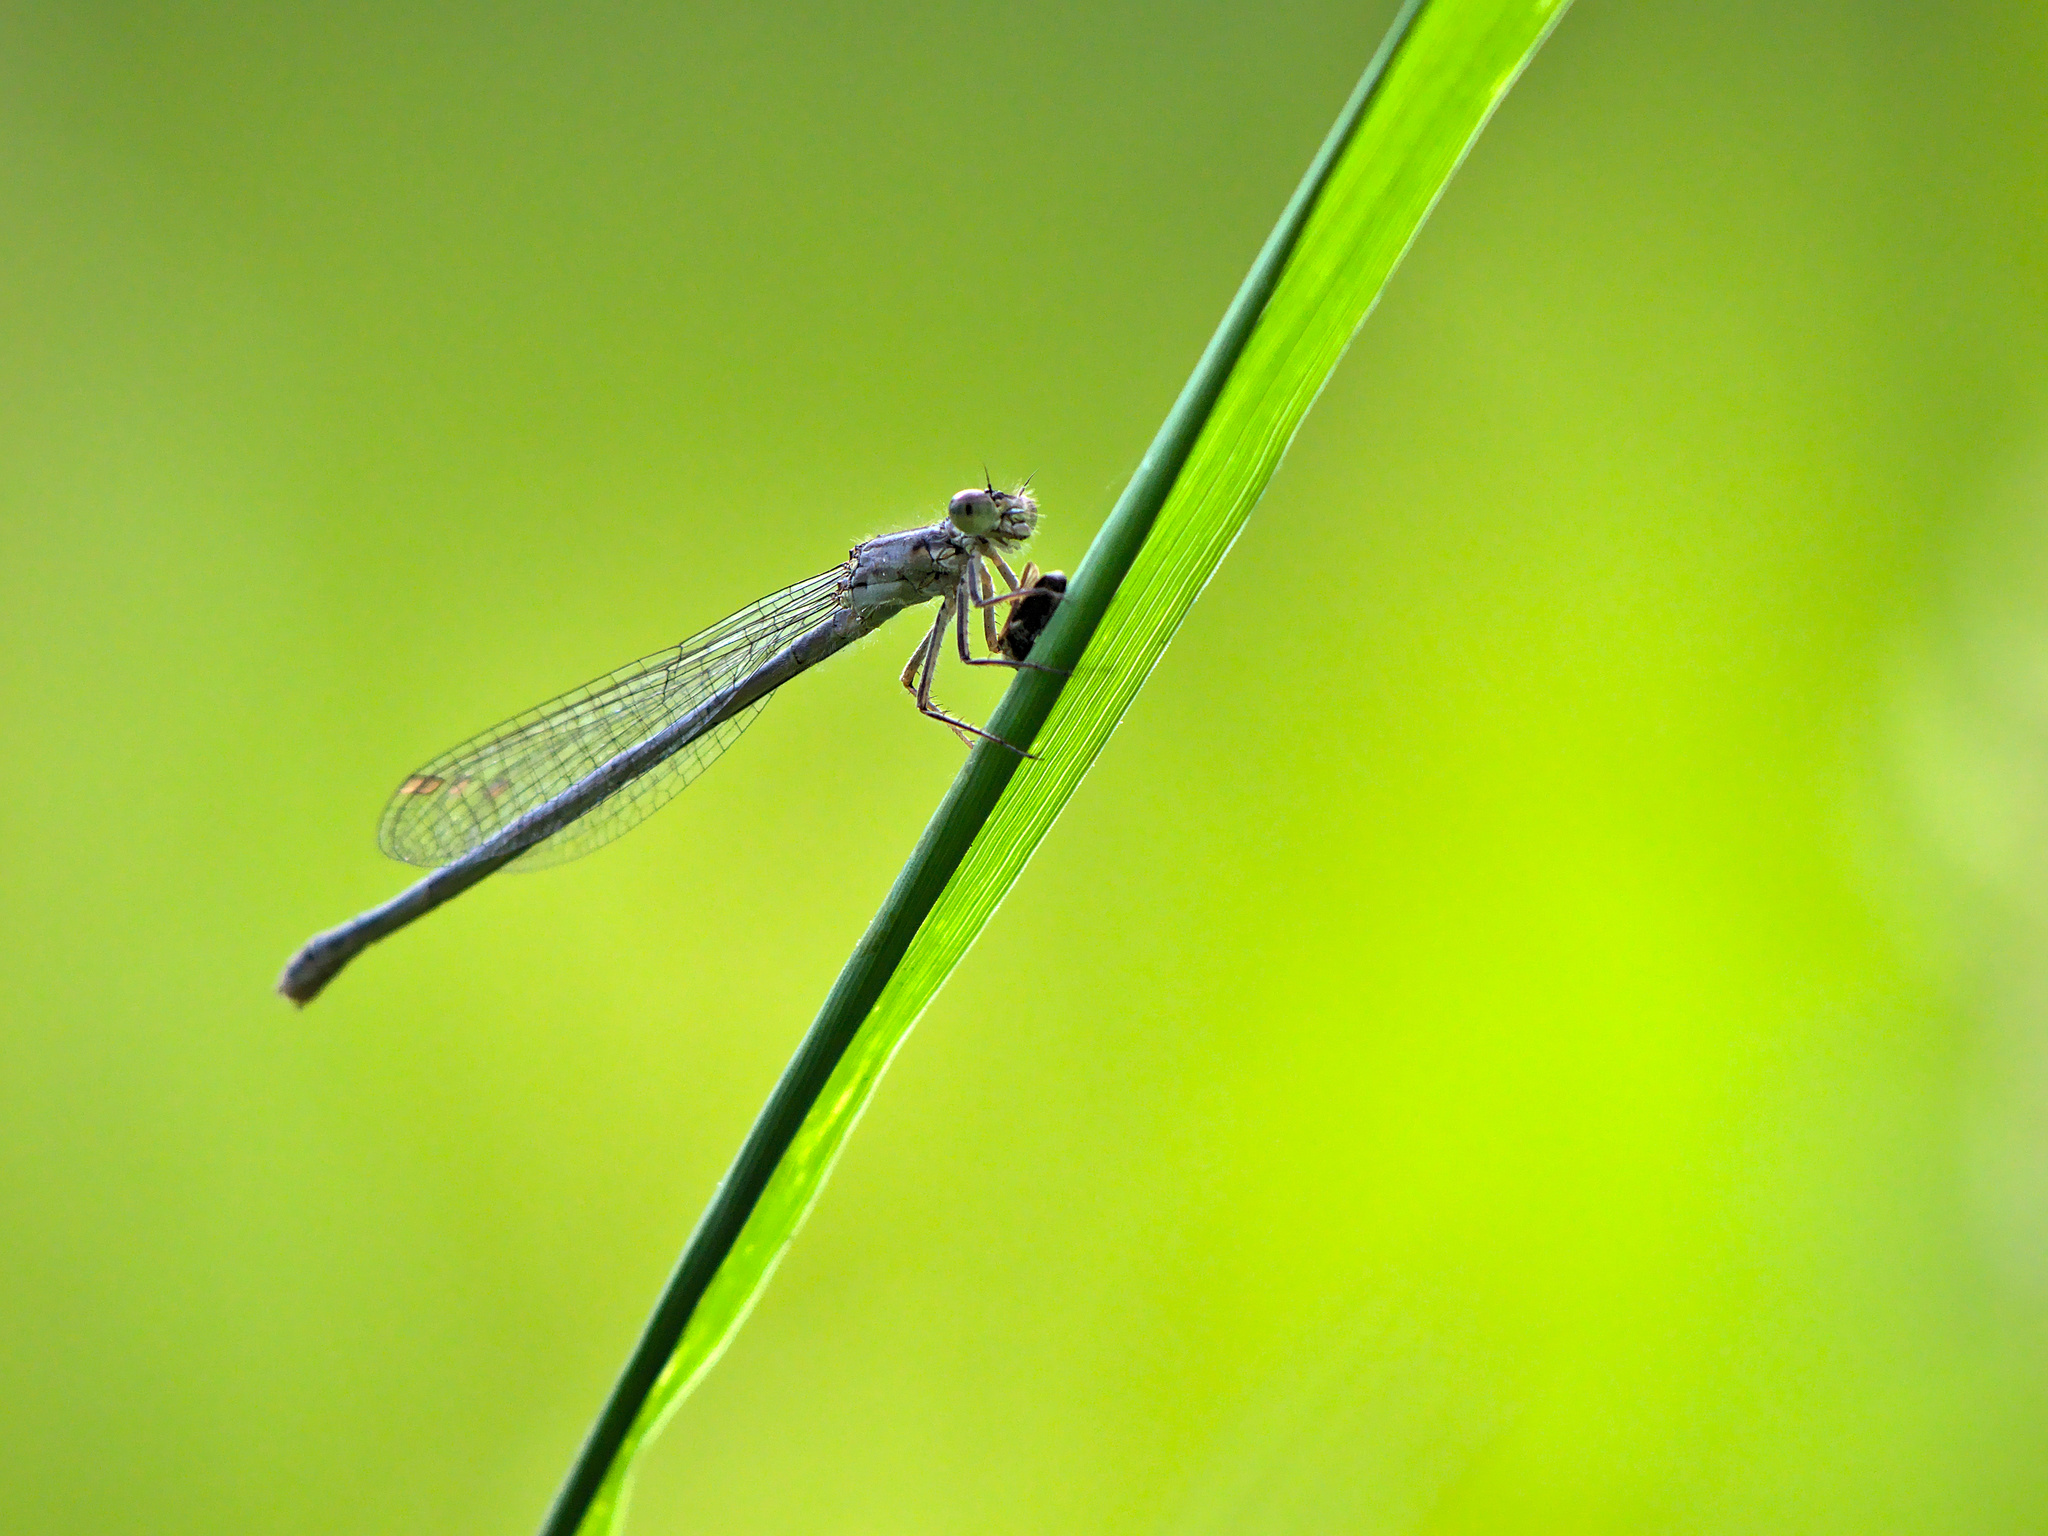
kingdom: Animalia
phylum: Arthropoda
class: Insecta
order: Odonata
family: Coenagrionidae
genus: Ischnura
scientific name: Ischnura verticalis
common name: Eastern forktail
